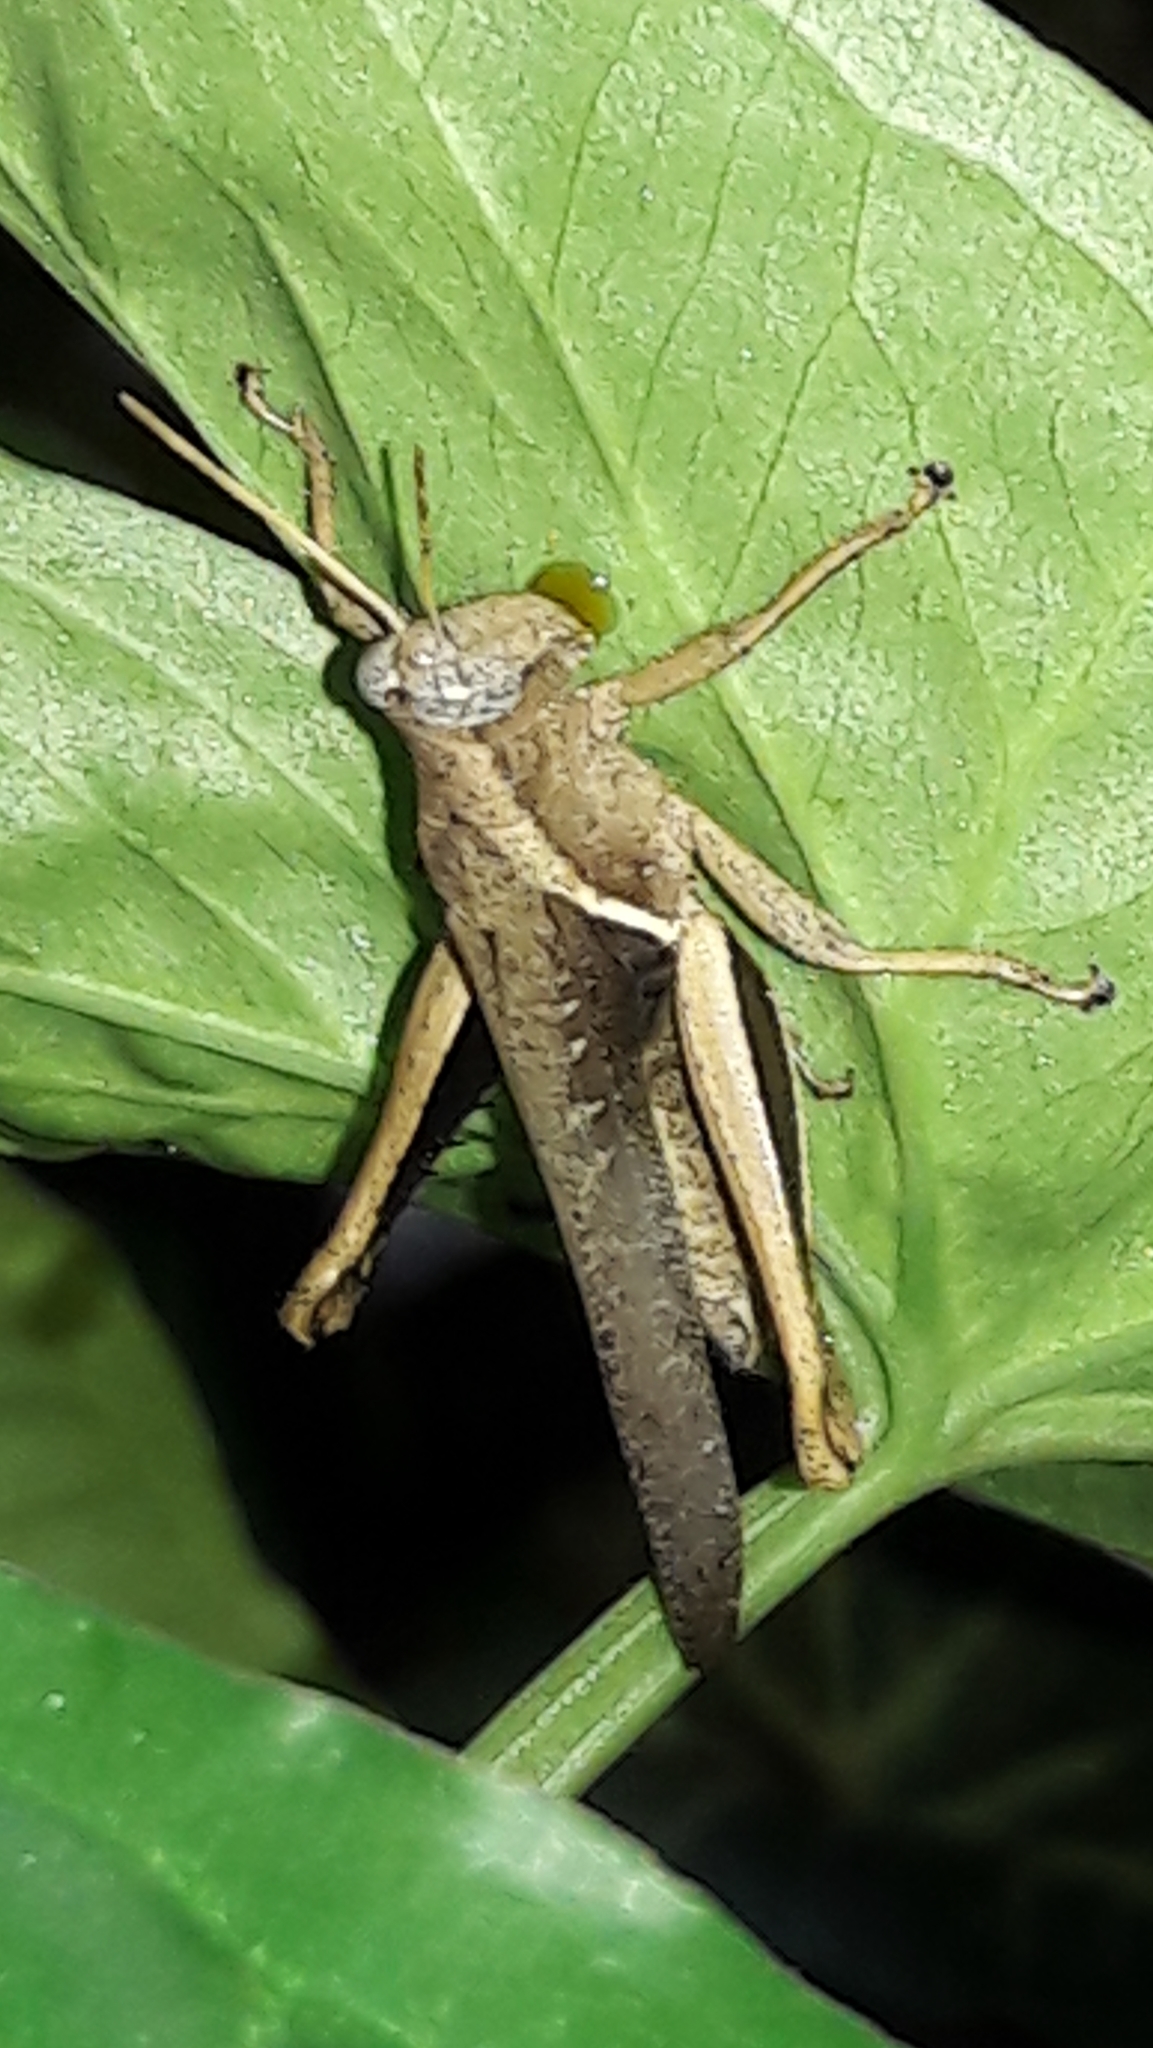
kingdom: Animalia
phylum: Arthropoda
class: Insecta
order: Orthoptera
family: Acrididae
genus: Abracris
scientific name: Abracris flavolineata
